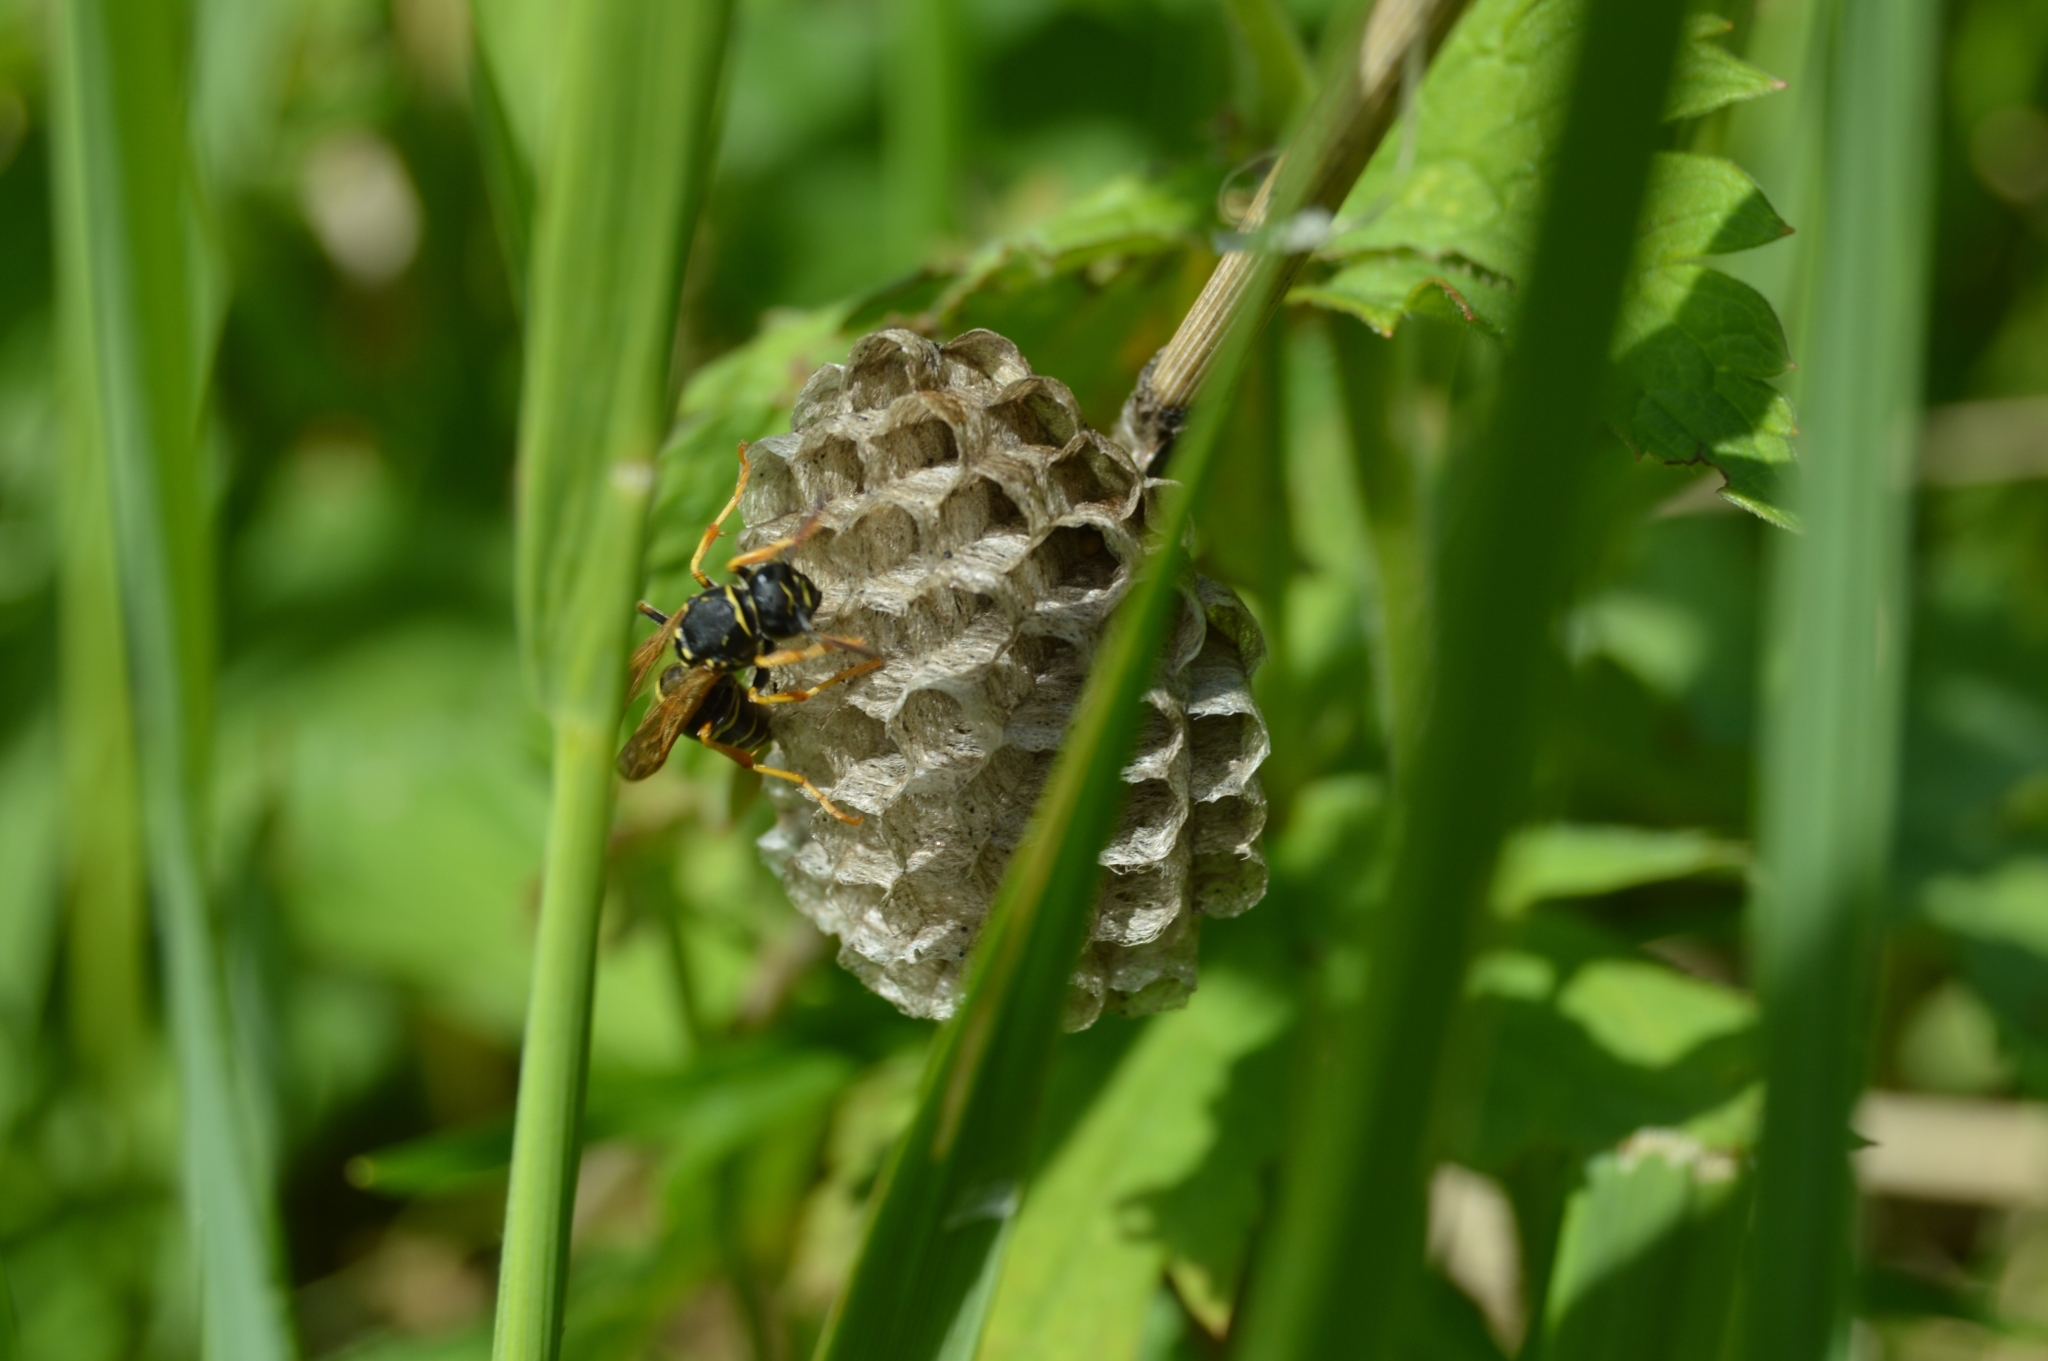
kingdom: Animalia
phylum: Arthropoda
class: Insecta
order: Hymenoptera
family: Eumenidae
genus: Polistes
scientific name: Polistes nimpha
